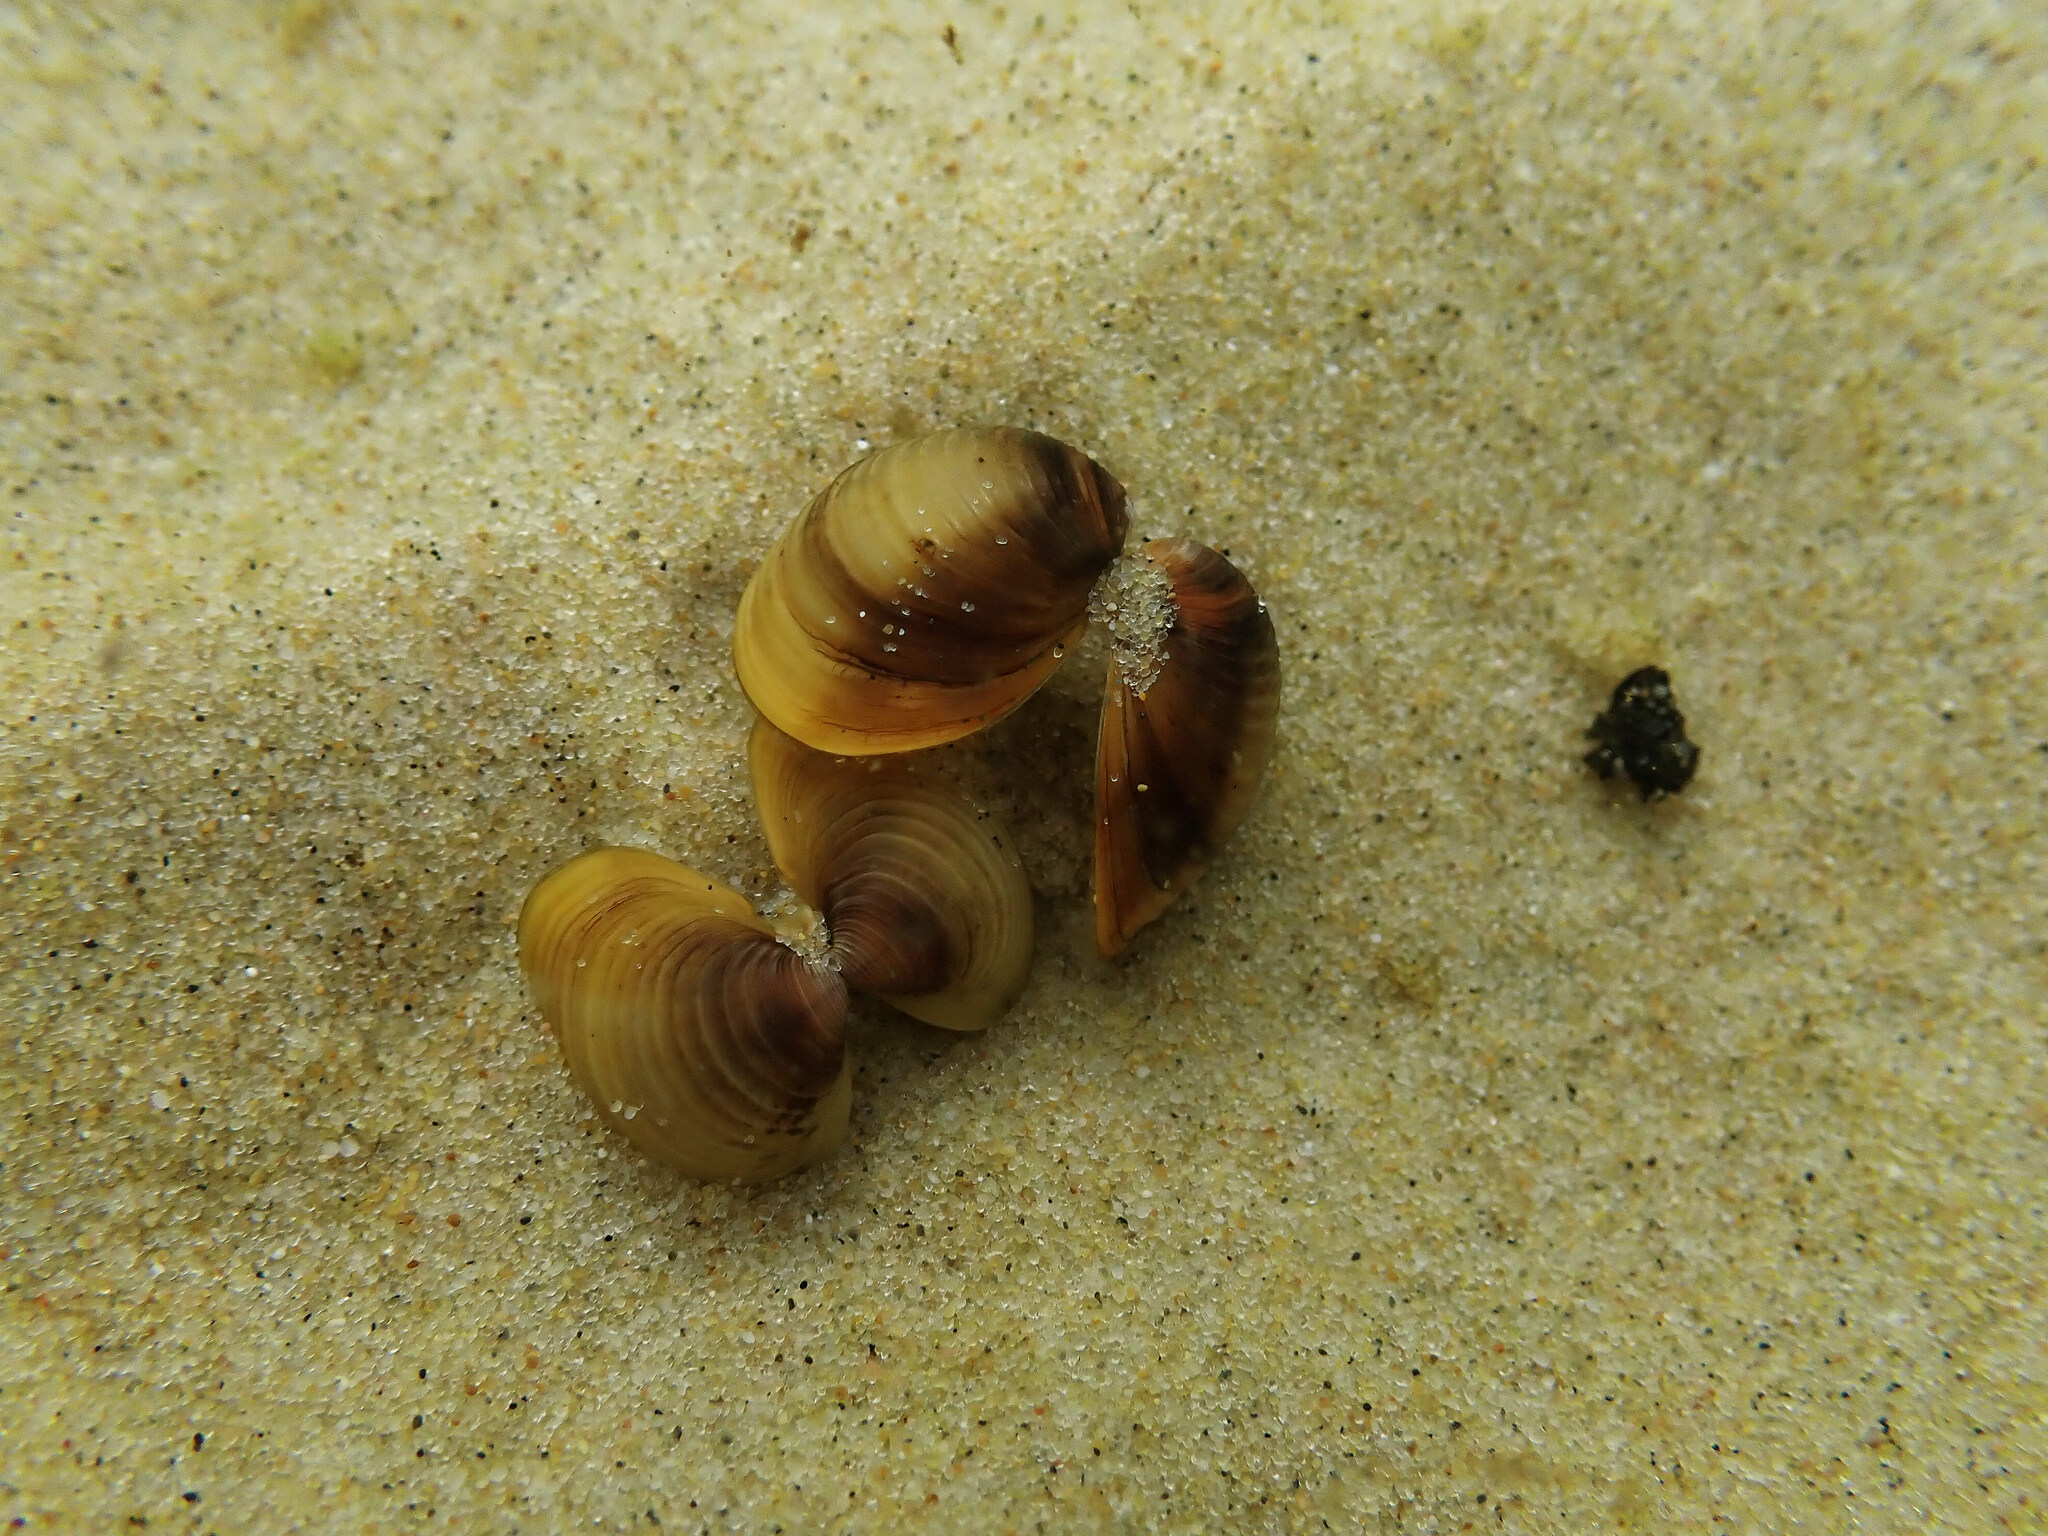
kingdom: Animalia
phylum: Mollusca
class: Bivalvia
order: Venerida
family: Cyrenidae
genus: Corbicula
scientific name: Corbicula fluminea
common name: Asian clam
